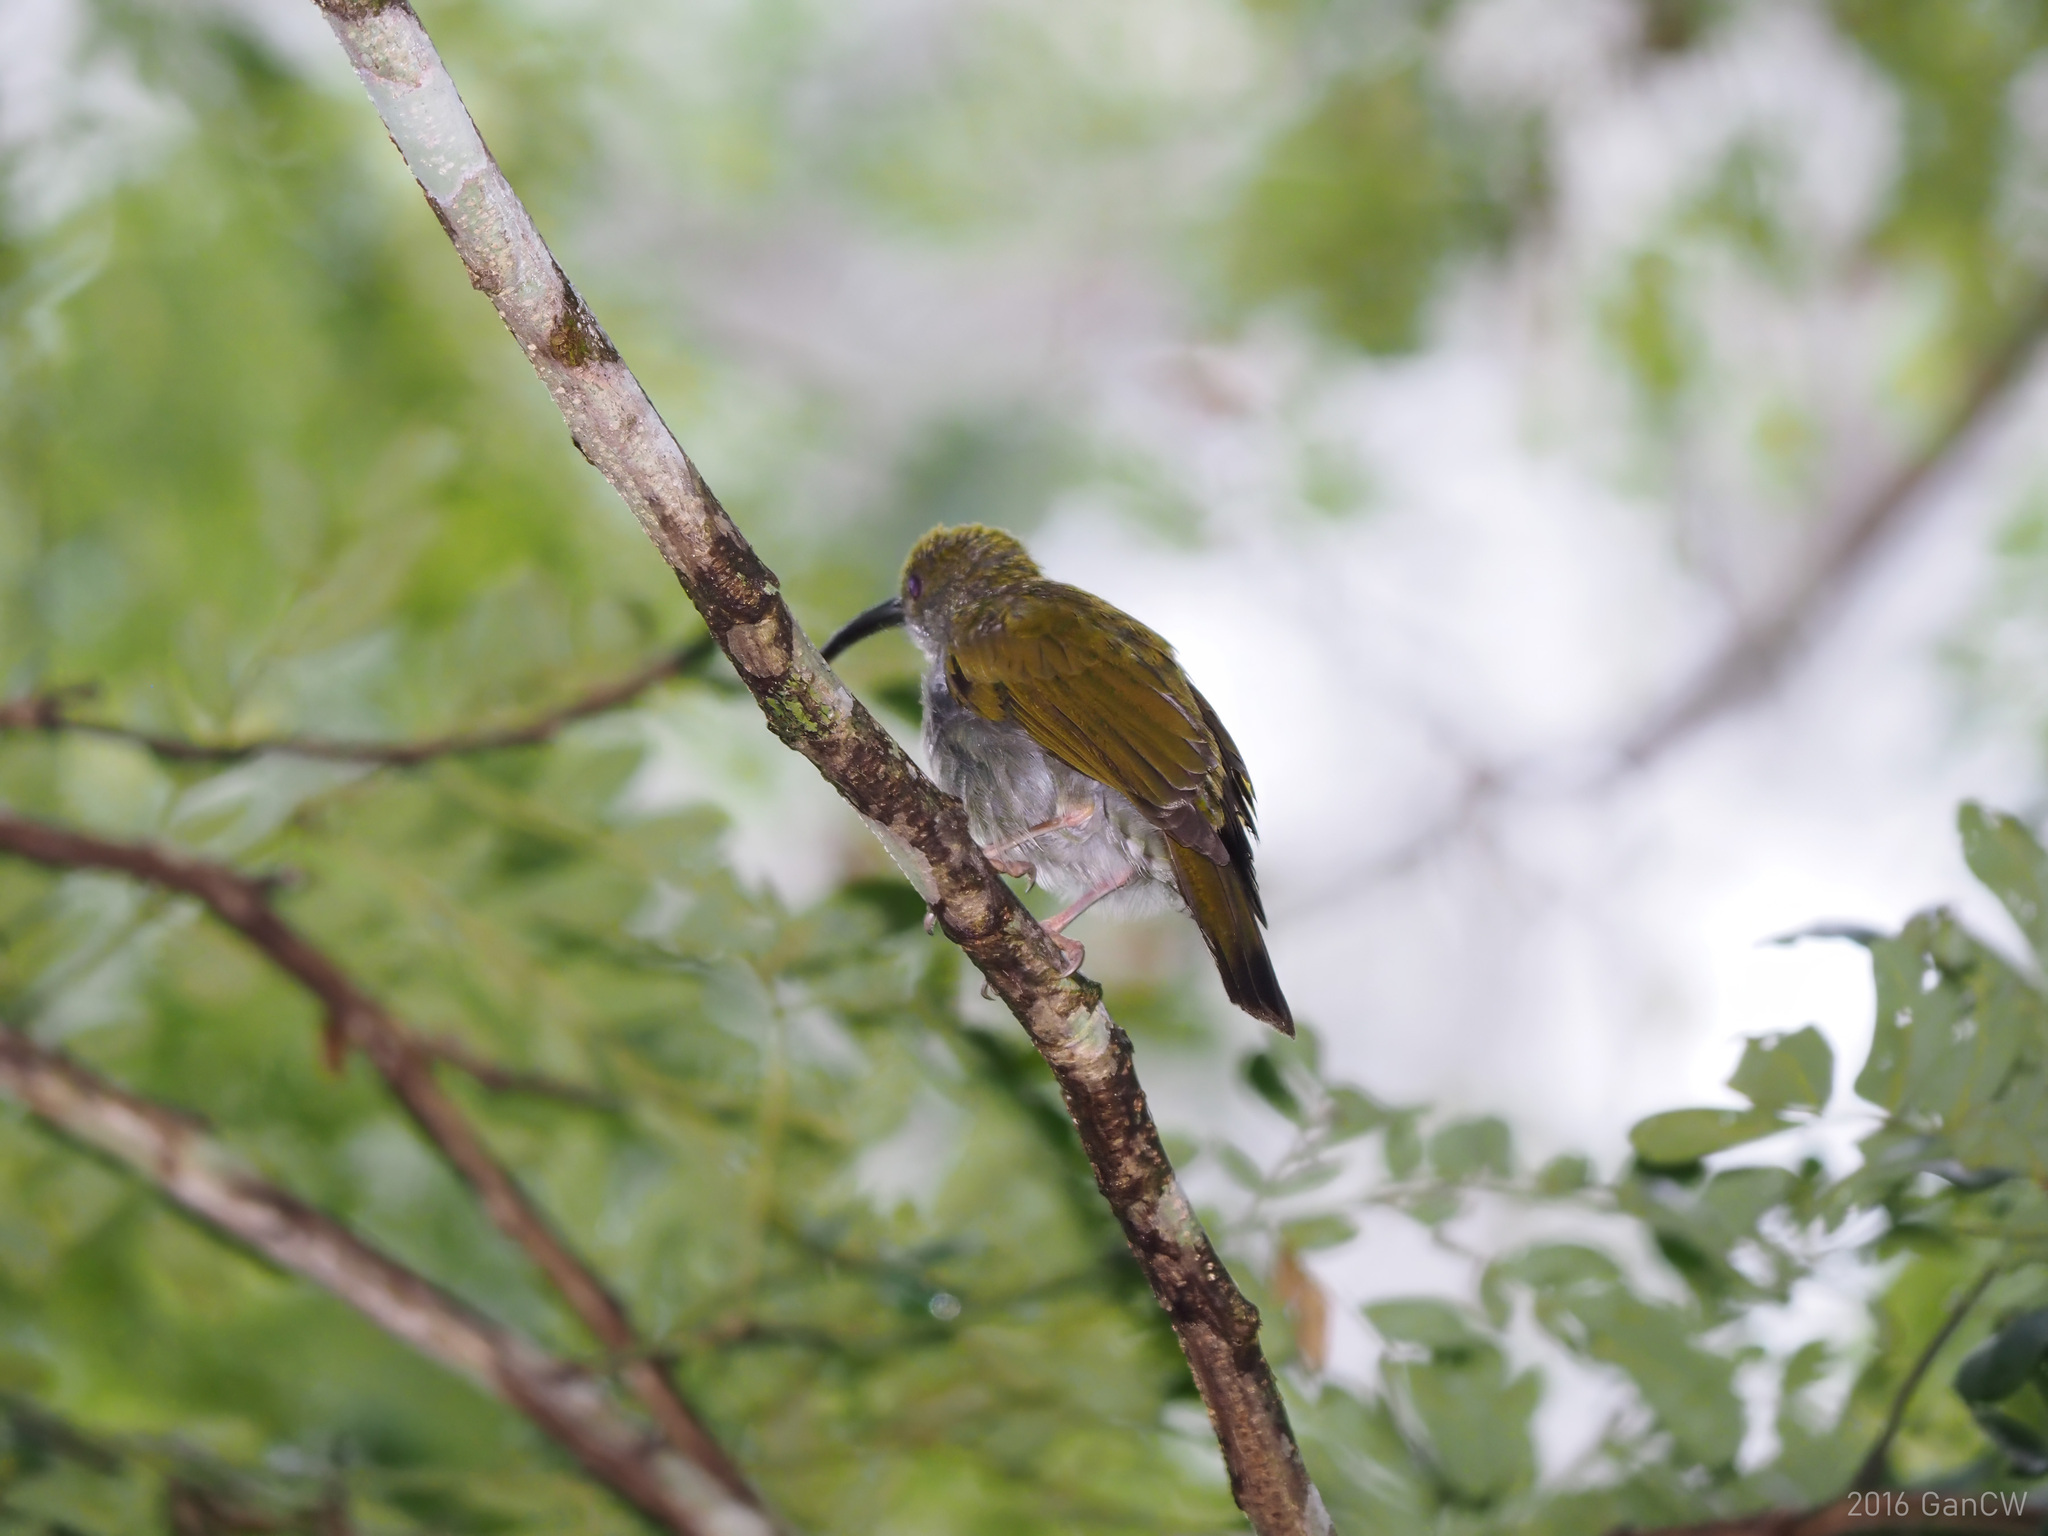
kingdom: Animalia
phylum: Chordata
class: Aves
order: Passeriformes
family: Nectariniidae
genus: Anthreptes
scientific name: Anthreptes simplex
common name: Plain sunbird
